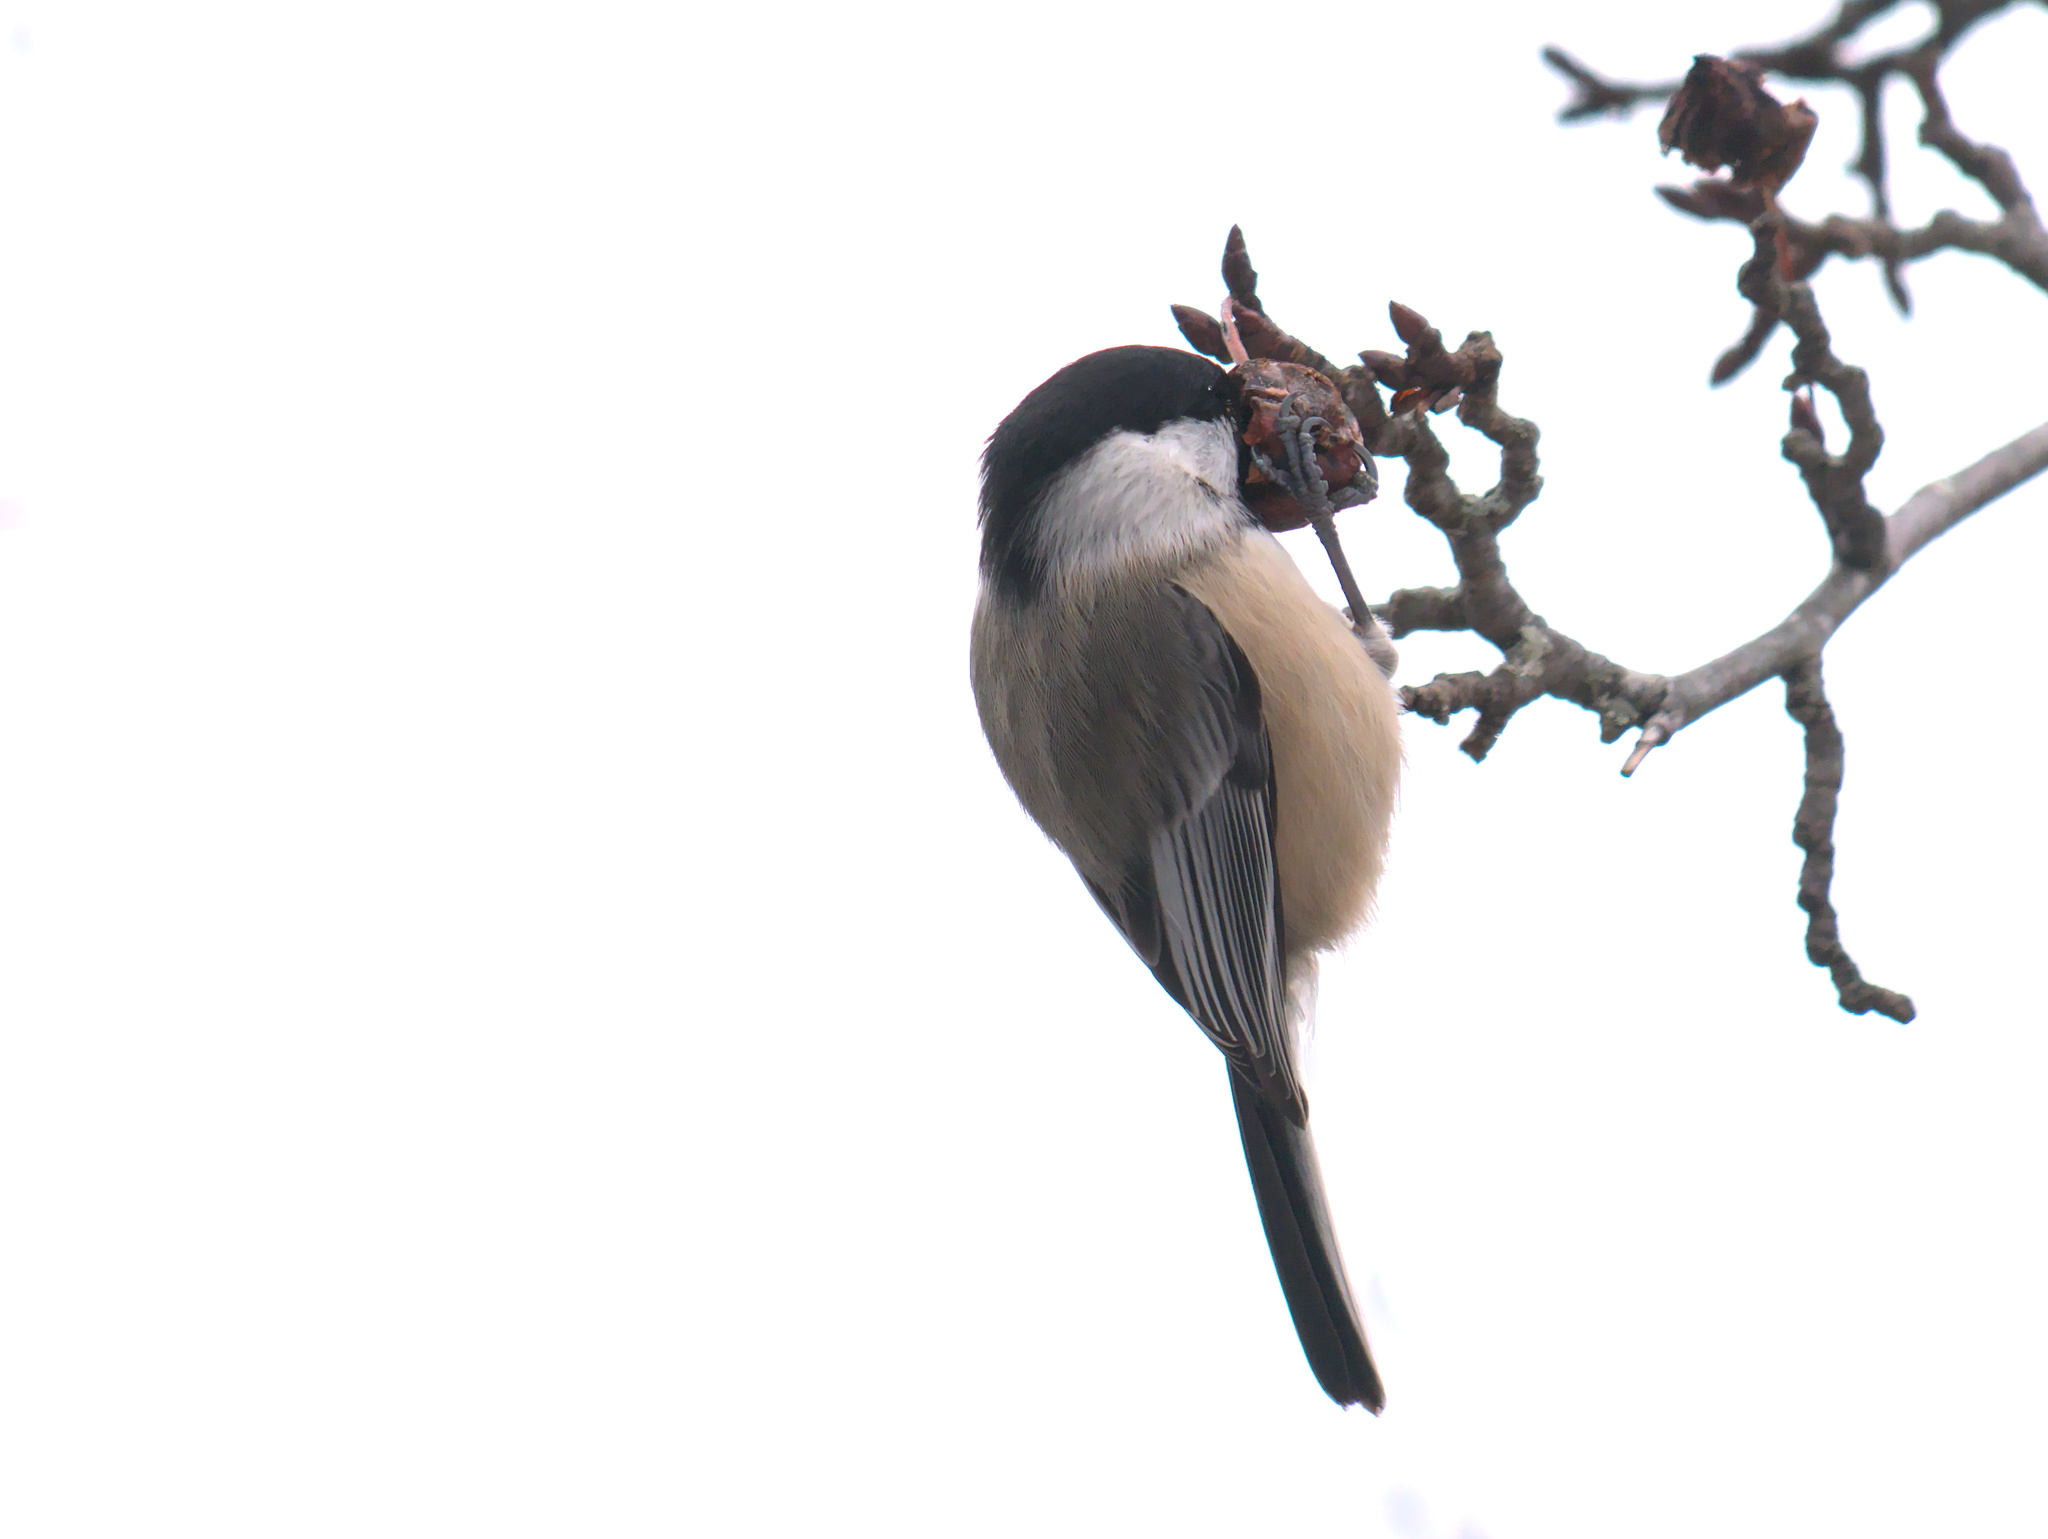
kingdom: Animalia
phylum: Chordata
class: Aves
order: Passeriformes
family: Paridae
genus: Poecile
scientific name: Poecile atricapillus
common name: Black-capped chickadee
